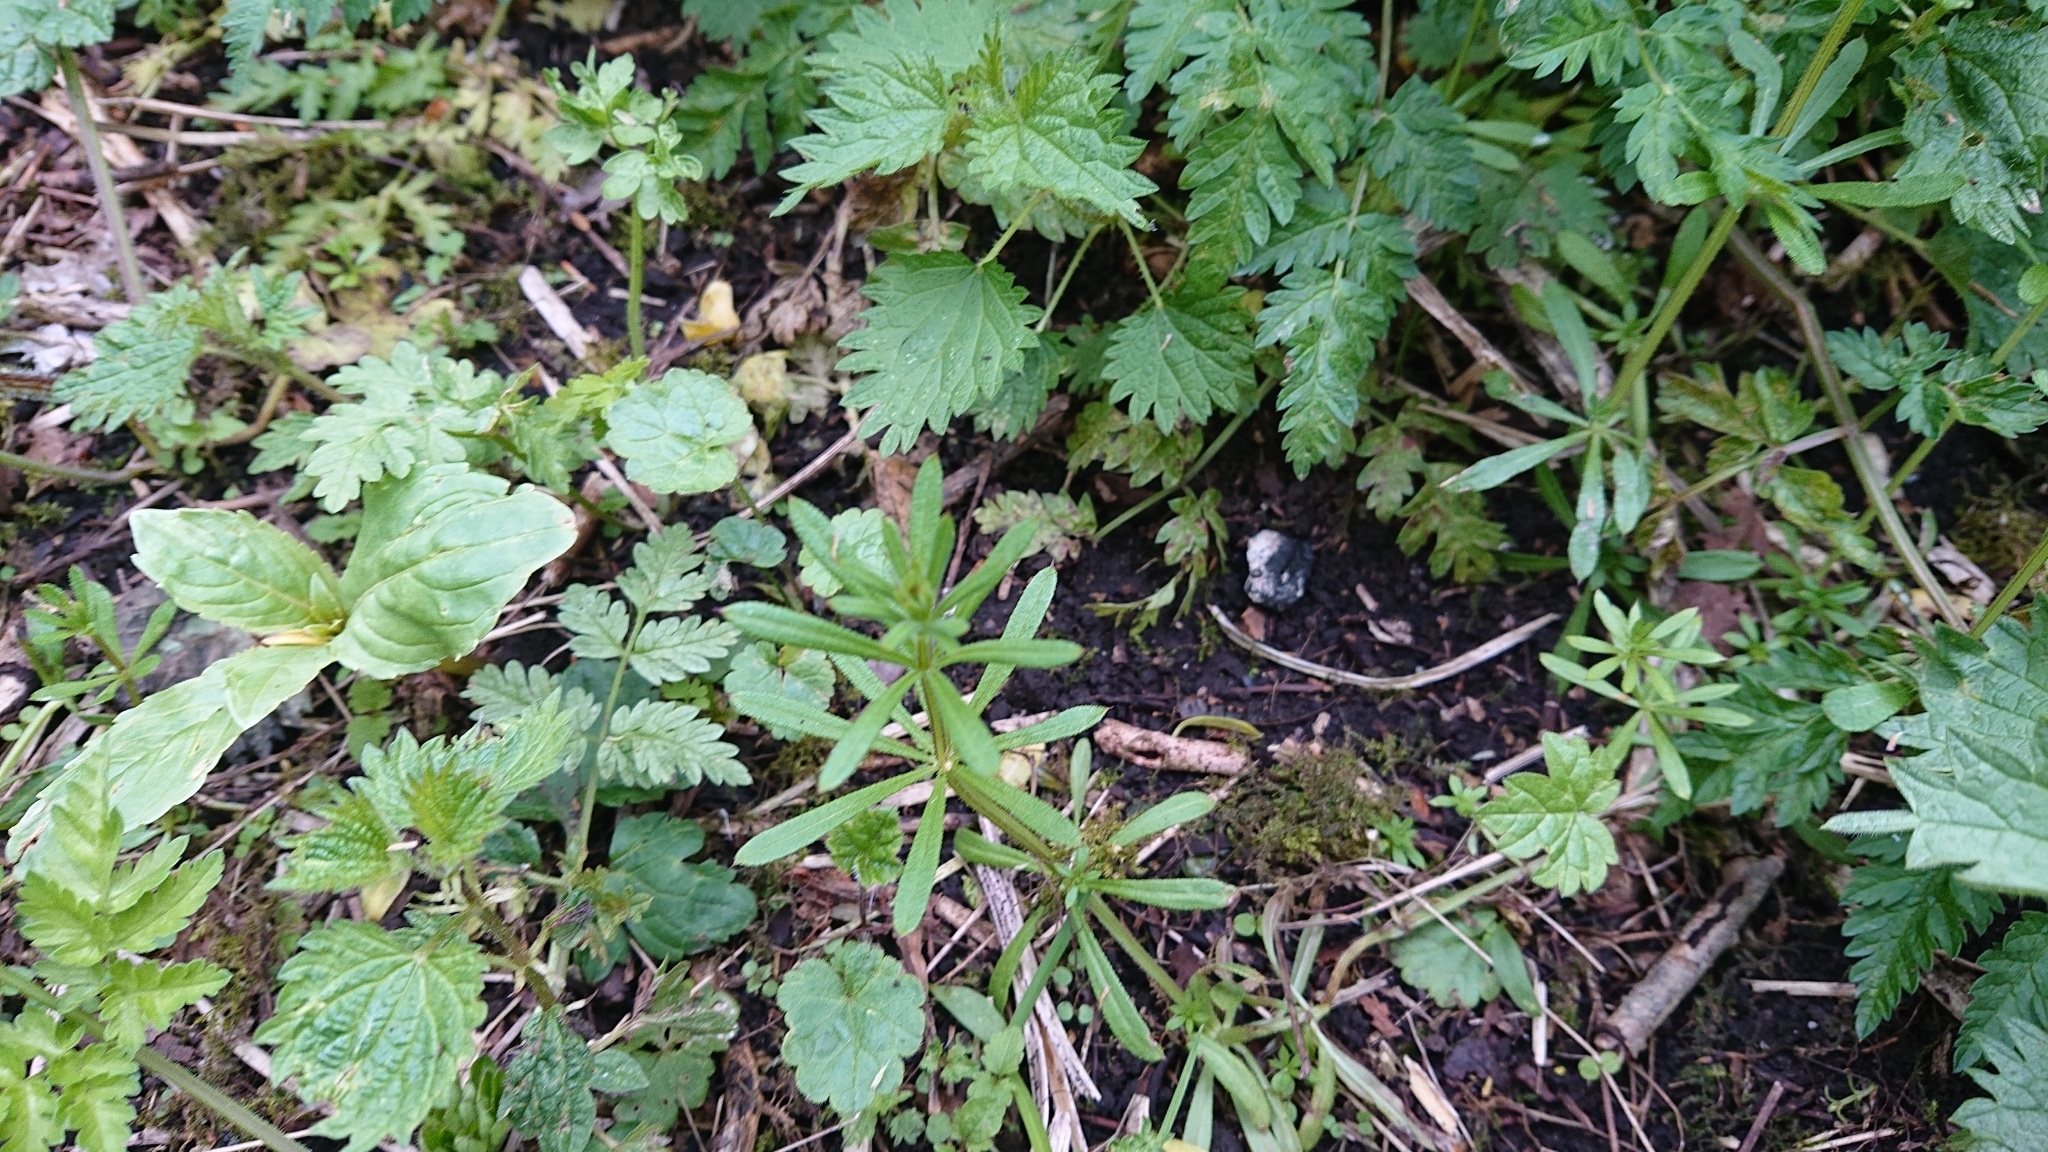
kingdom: Plantae
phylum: Tracheophyta
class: Magnoliopsida
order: Gentianales
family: Rubiaceae
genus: Galium
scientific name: Galium aparine
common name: Cleavers
